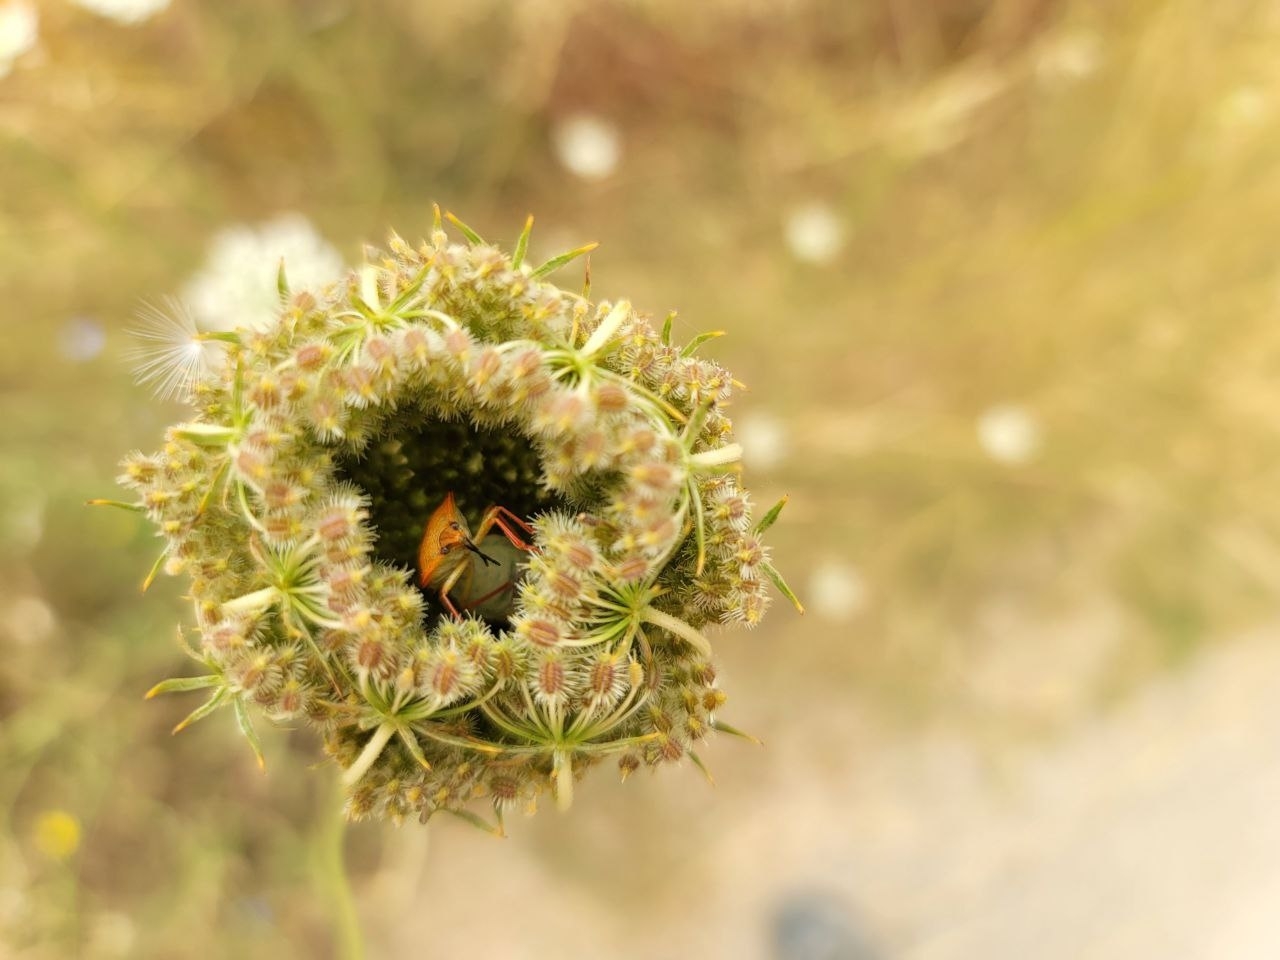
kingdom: Animalia
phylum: Arthropoda
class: Insecta
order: Hemiptera
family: Pentatomidae
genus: Carpocoris
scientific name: Carpocoris mediterraneus
